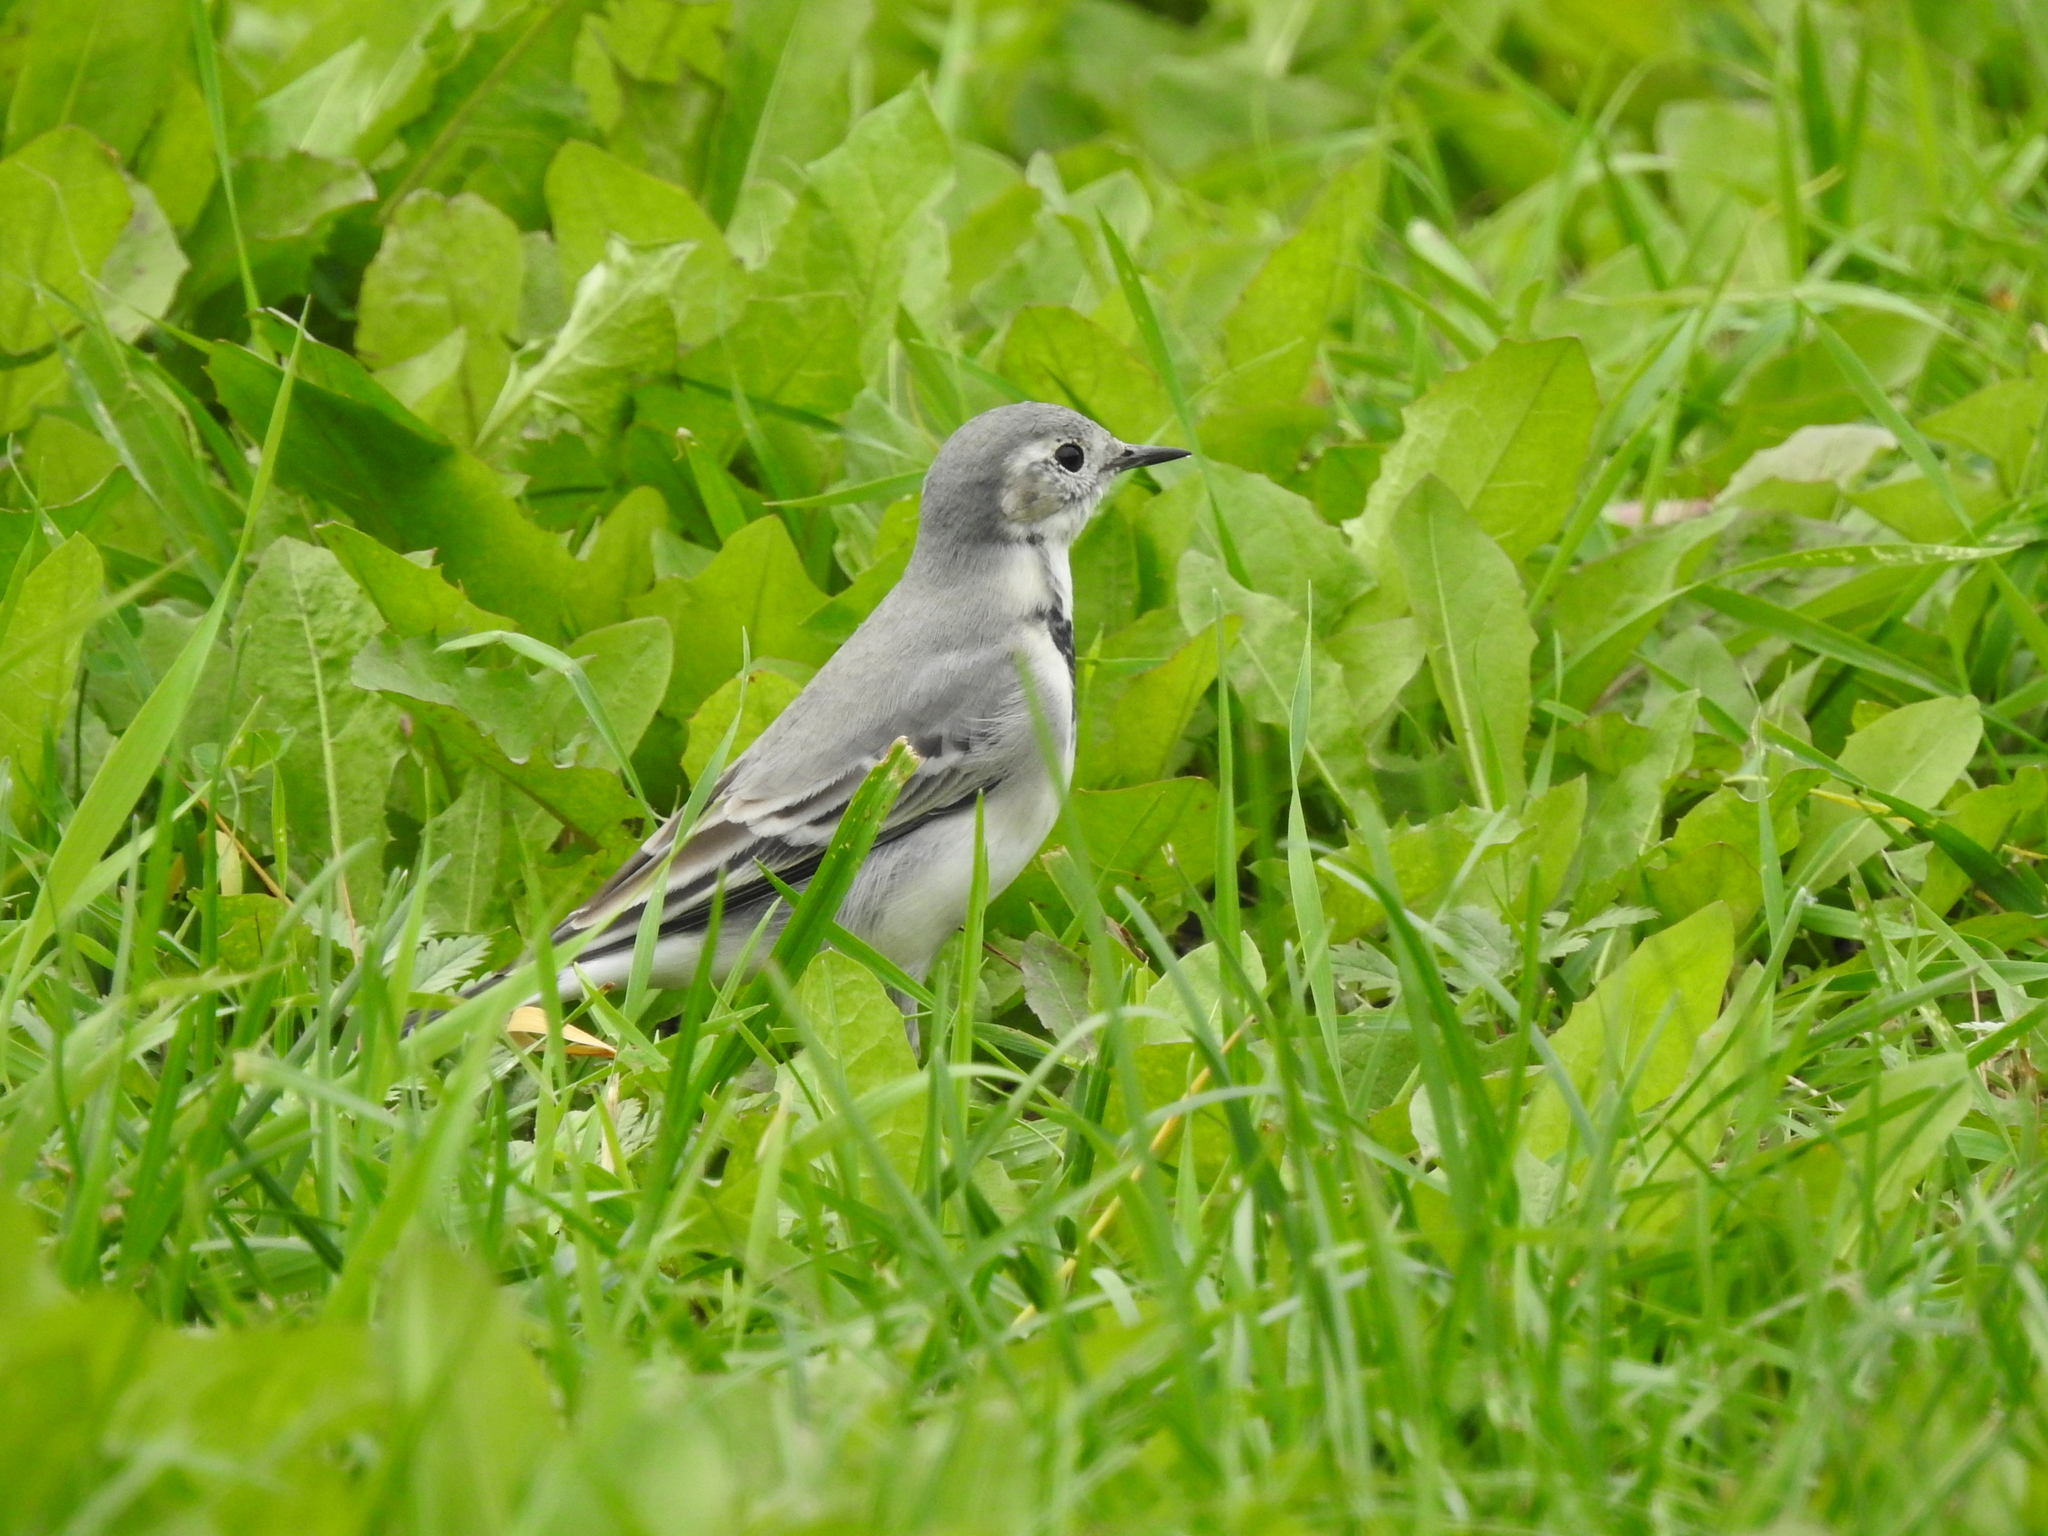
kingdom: Animalia
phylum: Chordata
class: Aves
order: Passeriformes
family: Motacillidae
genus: Motacilla
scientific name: Motacilla alba
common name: White wagtail
